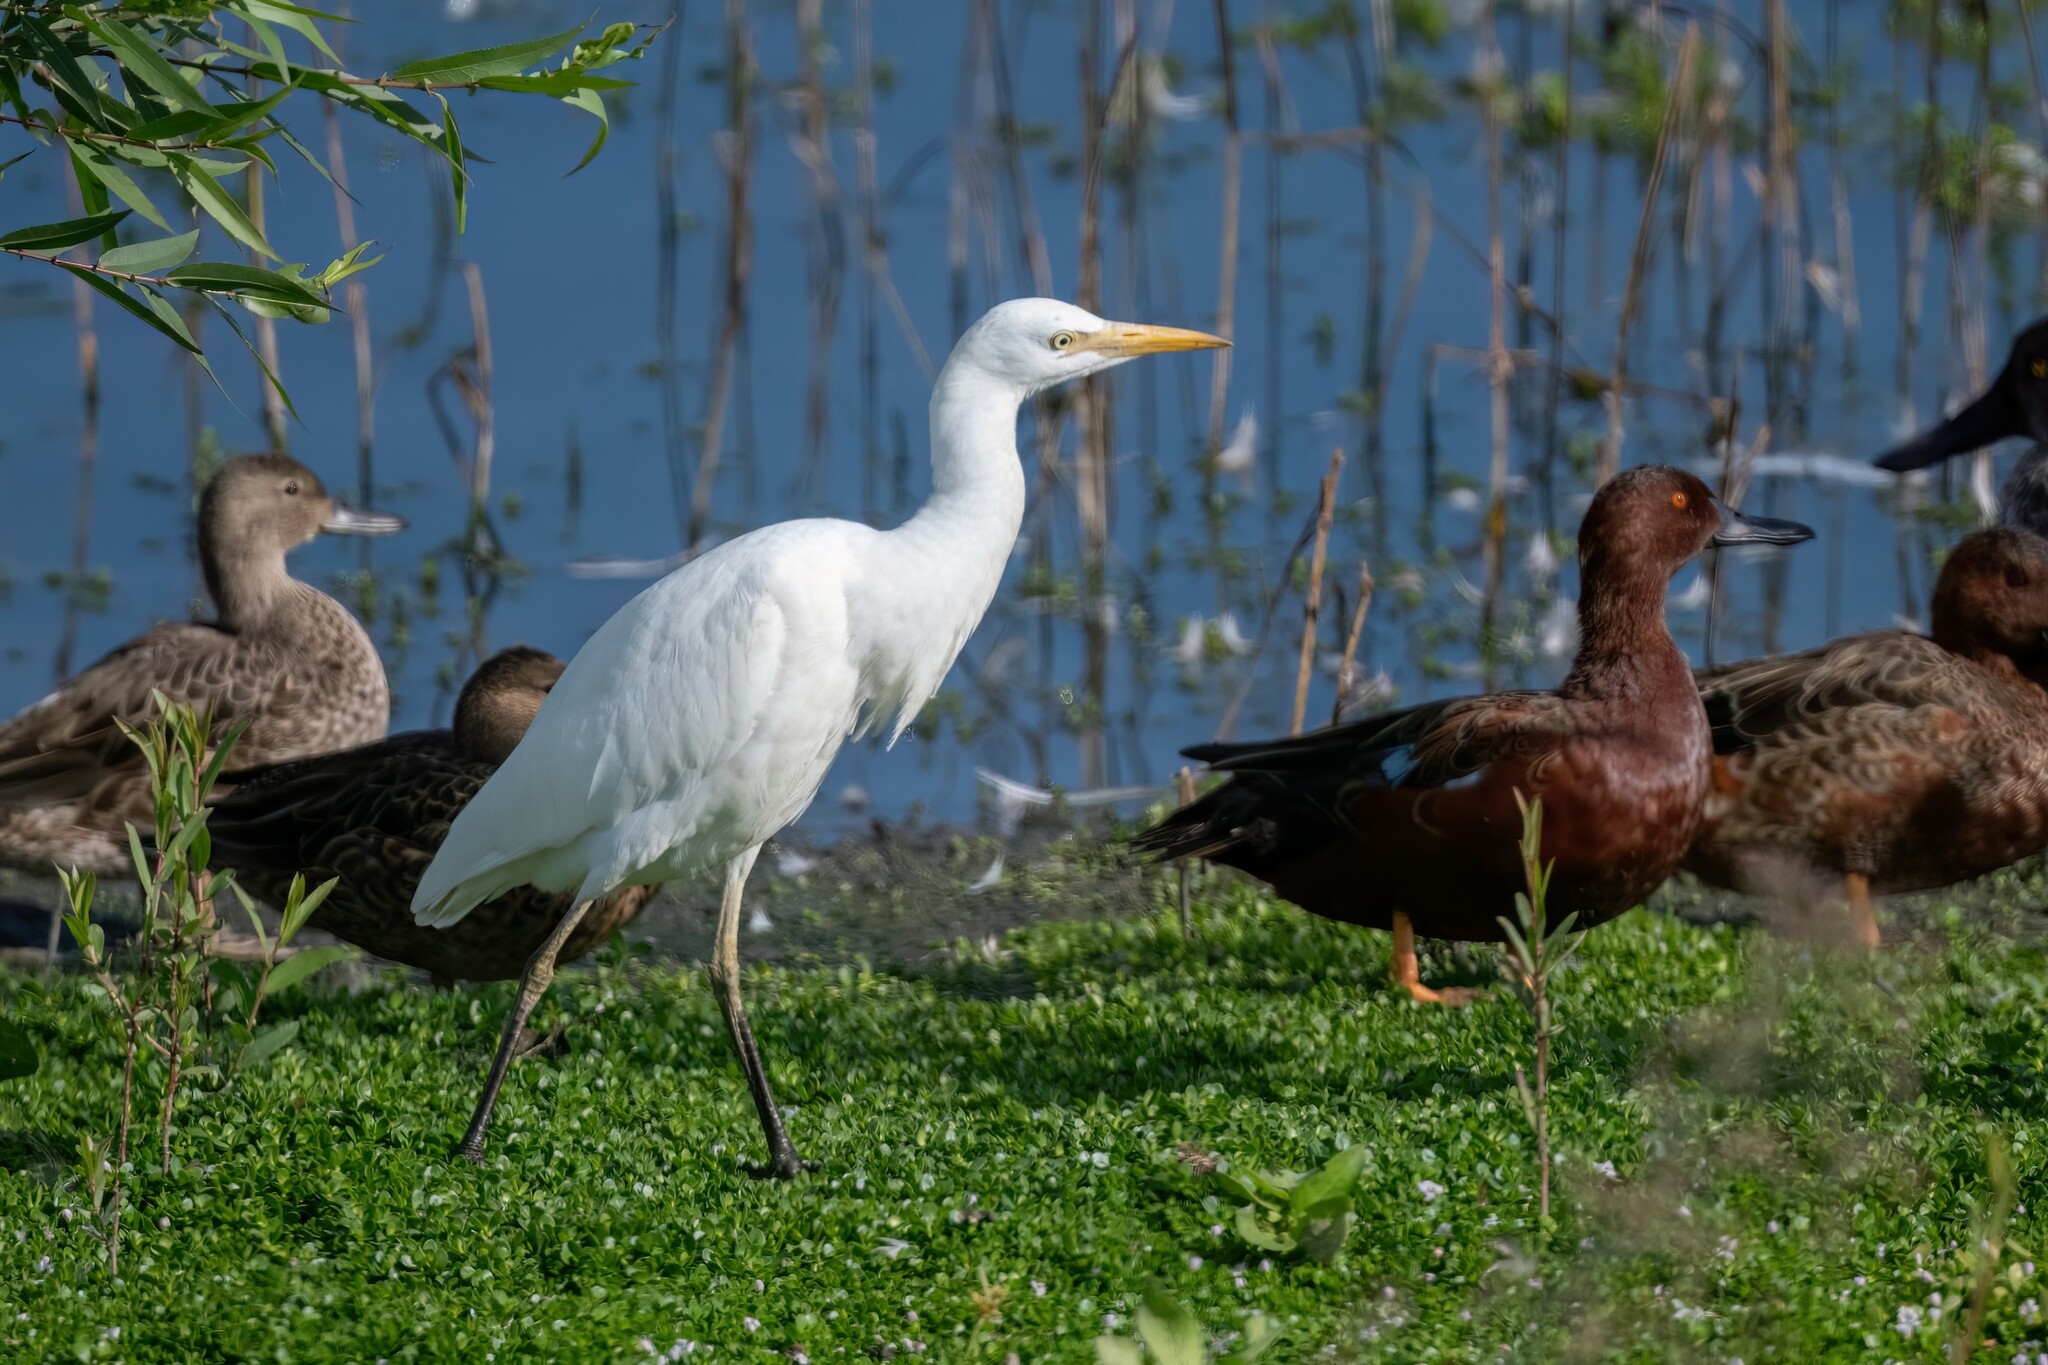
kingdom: Animalia
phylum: Chordata
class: Aves
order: Pelecaniformes
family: Ardeidae
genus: Bubulcus
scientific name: Bubulcus ibis
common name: Cattle egret
